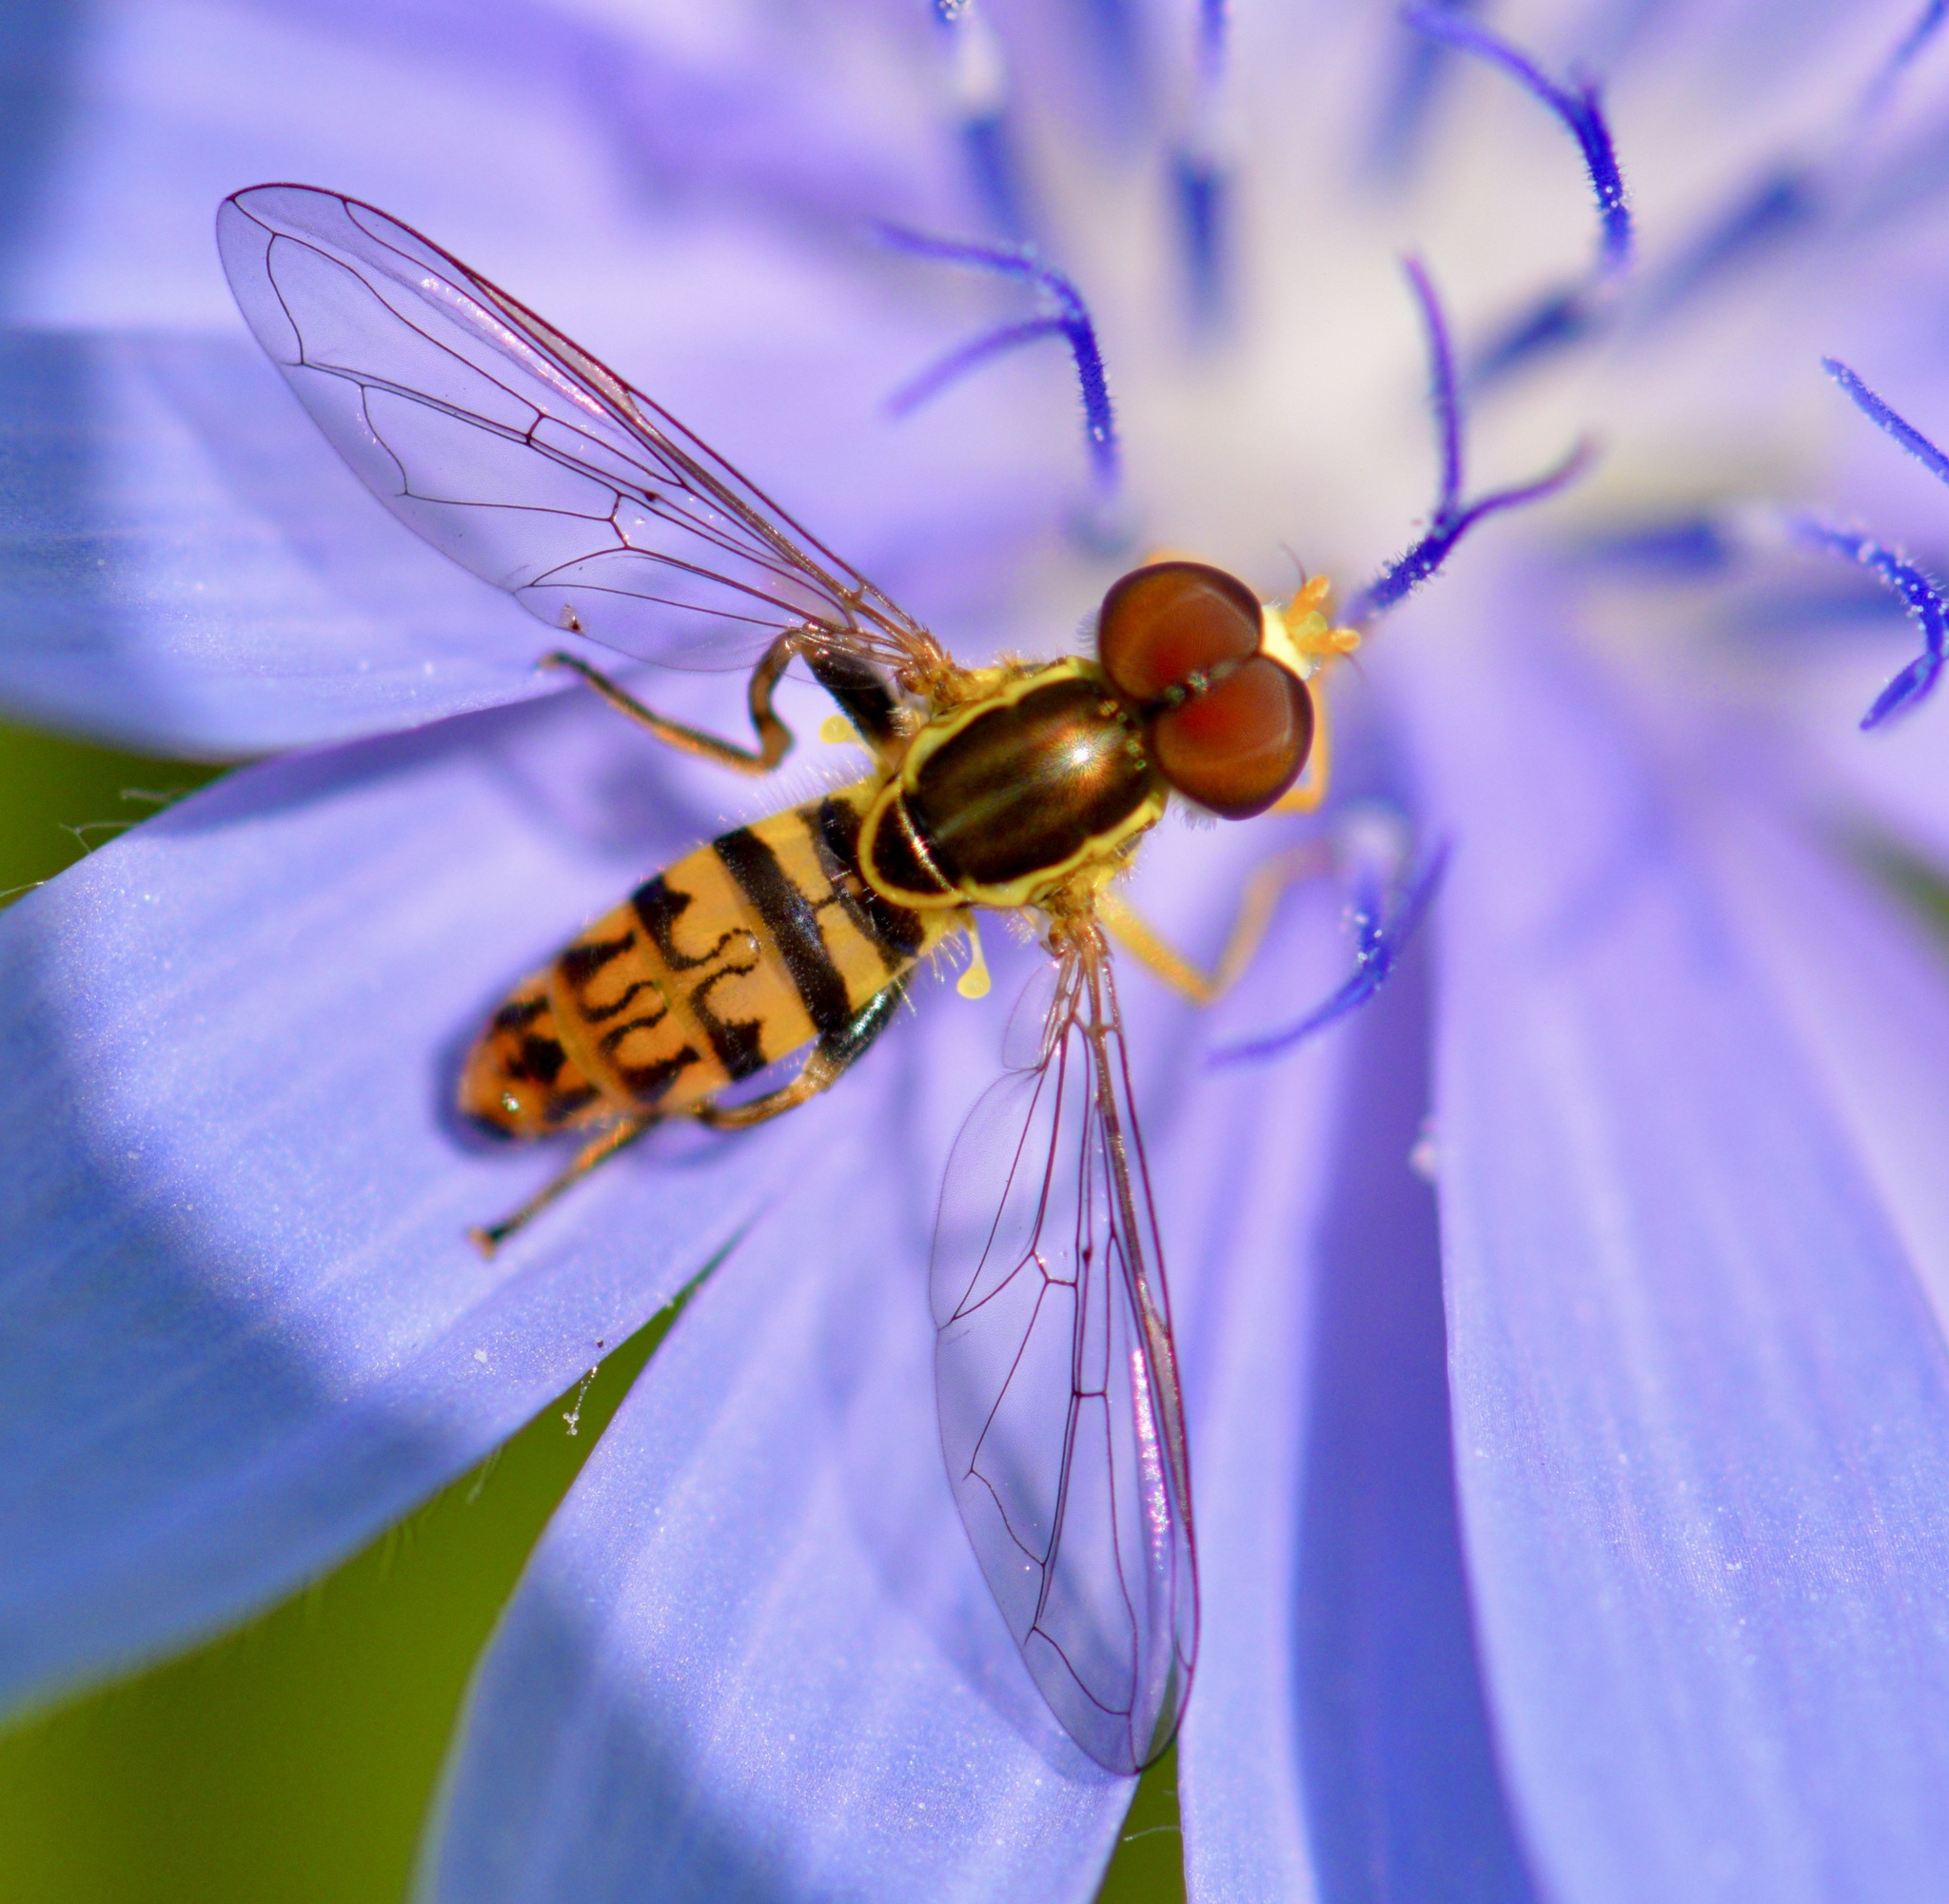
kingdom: Animalia
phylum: Arthropoda
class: Insecta
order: Diptera
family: Syrphidae
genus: Toxomerus
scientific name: Toxomerus geminatus
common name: Eastern calligrapher
